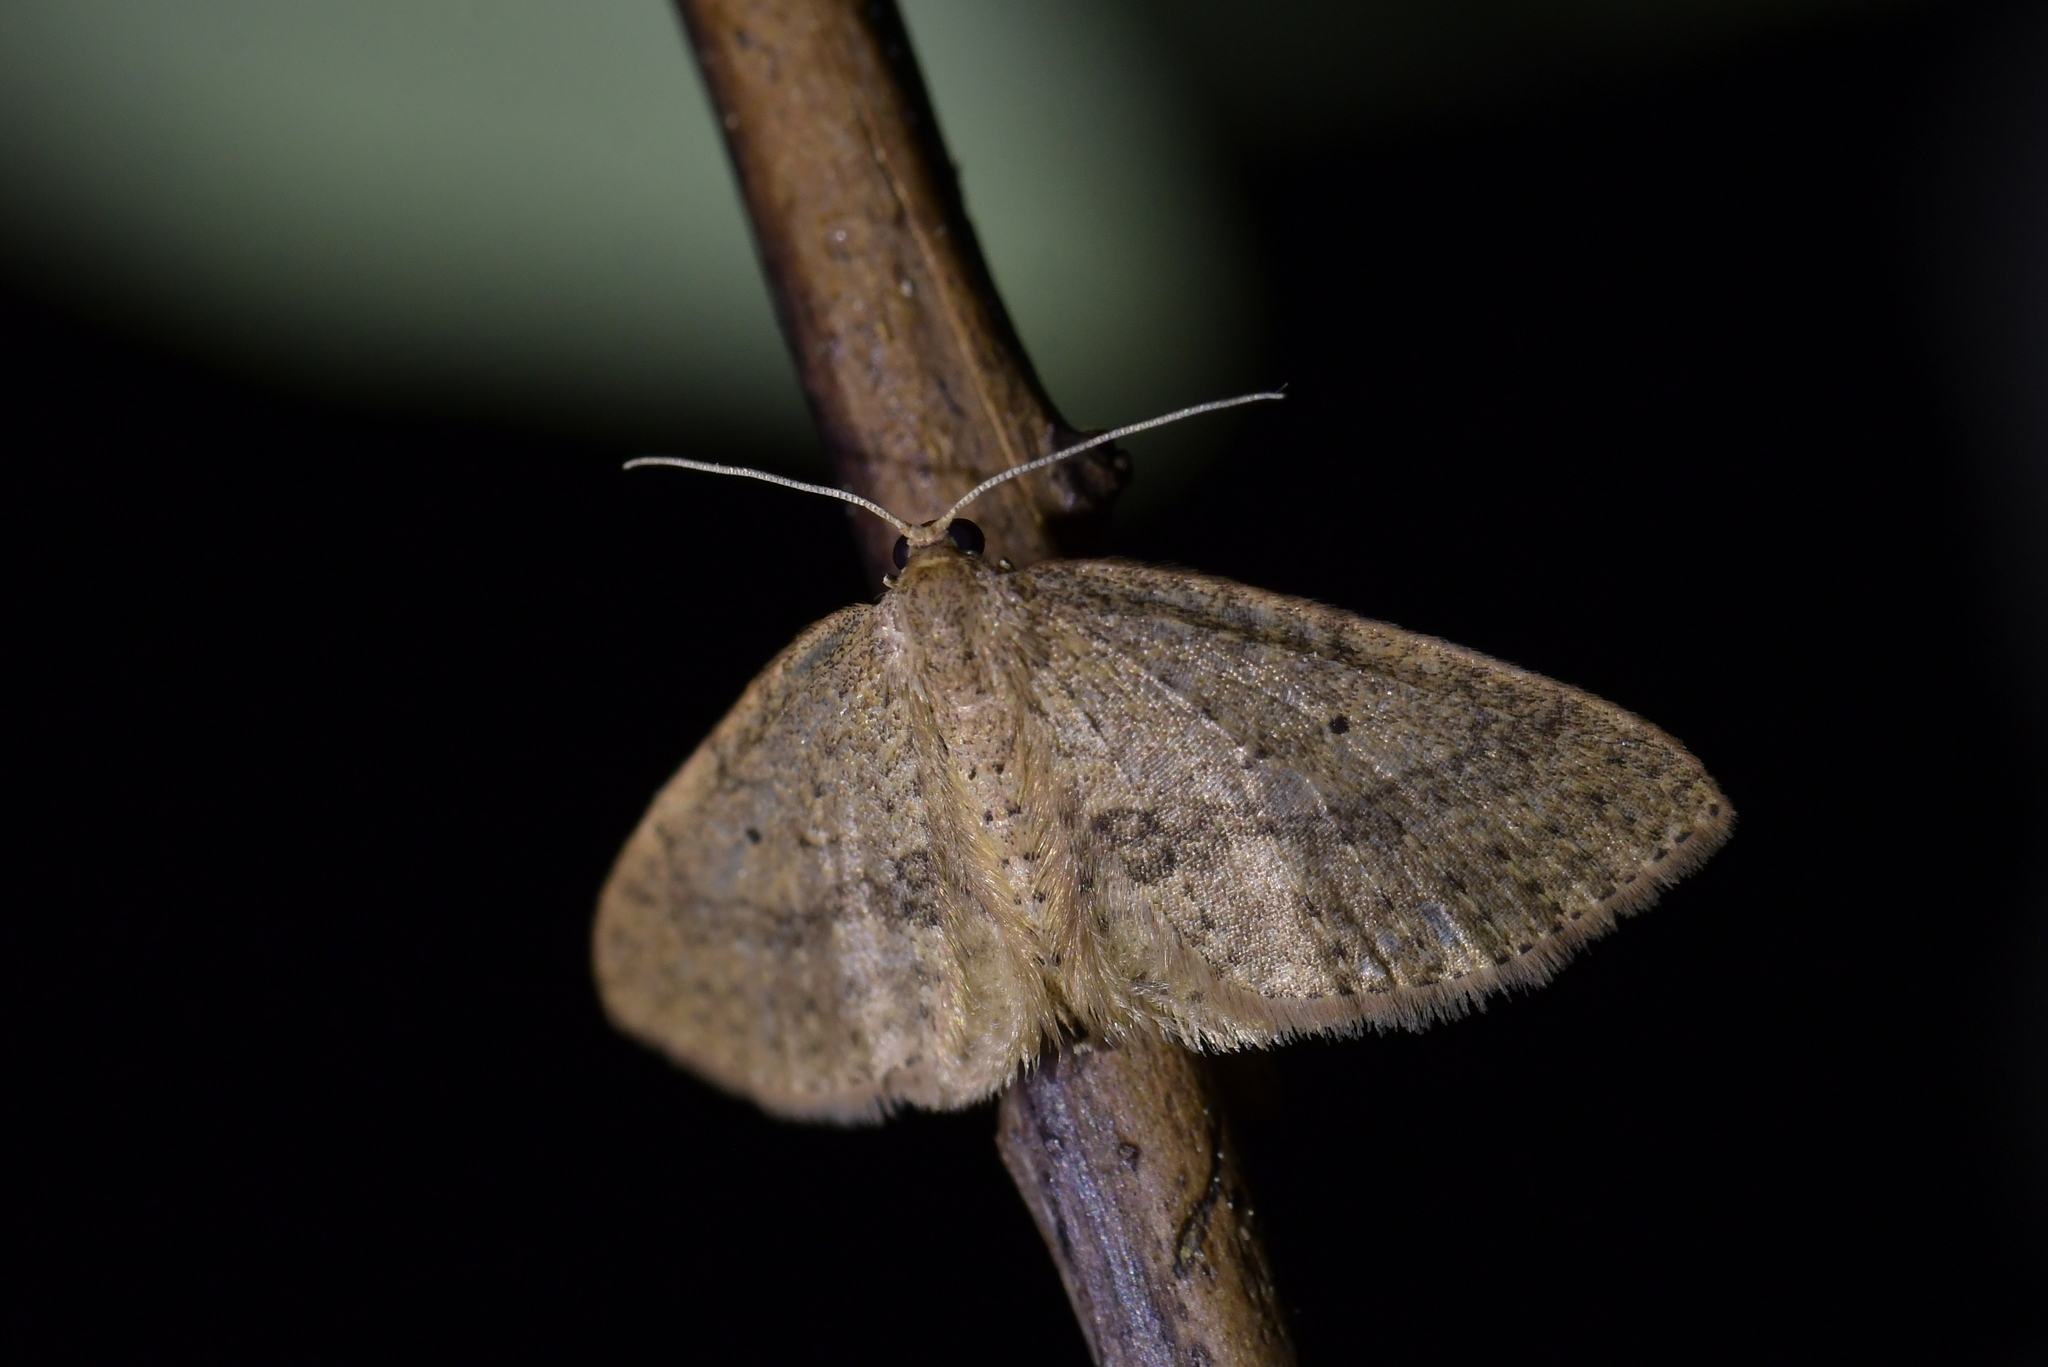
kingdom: Animalia
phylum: Arthropoda
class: Insecta
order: Lepidoptera
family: Geometridae
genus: Poecilasthena
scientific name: Poecilasthena schistaria
